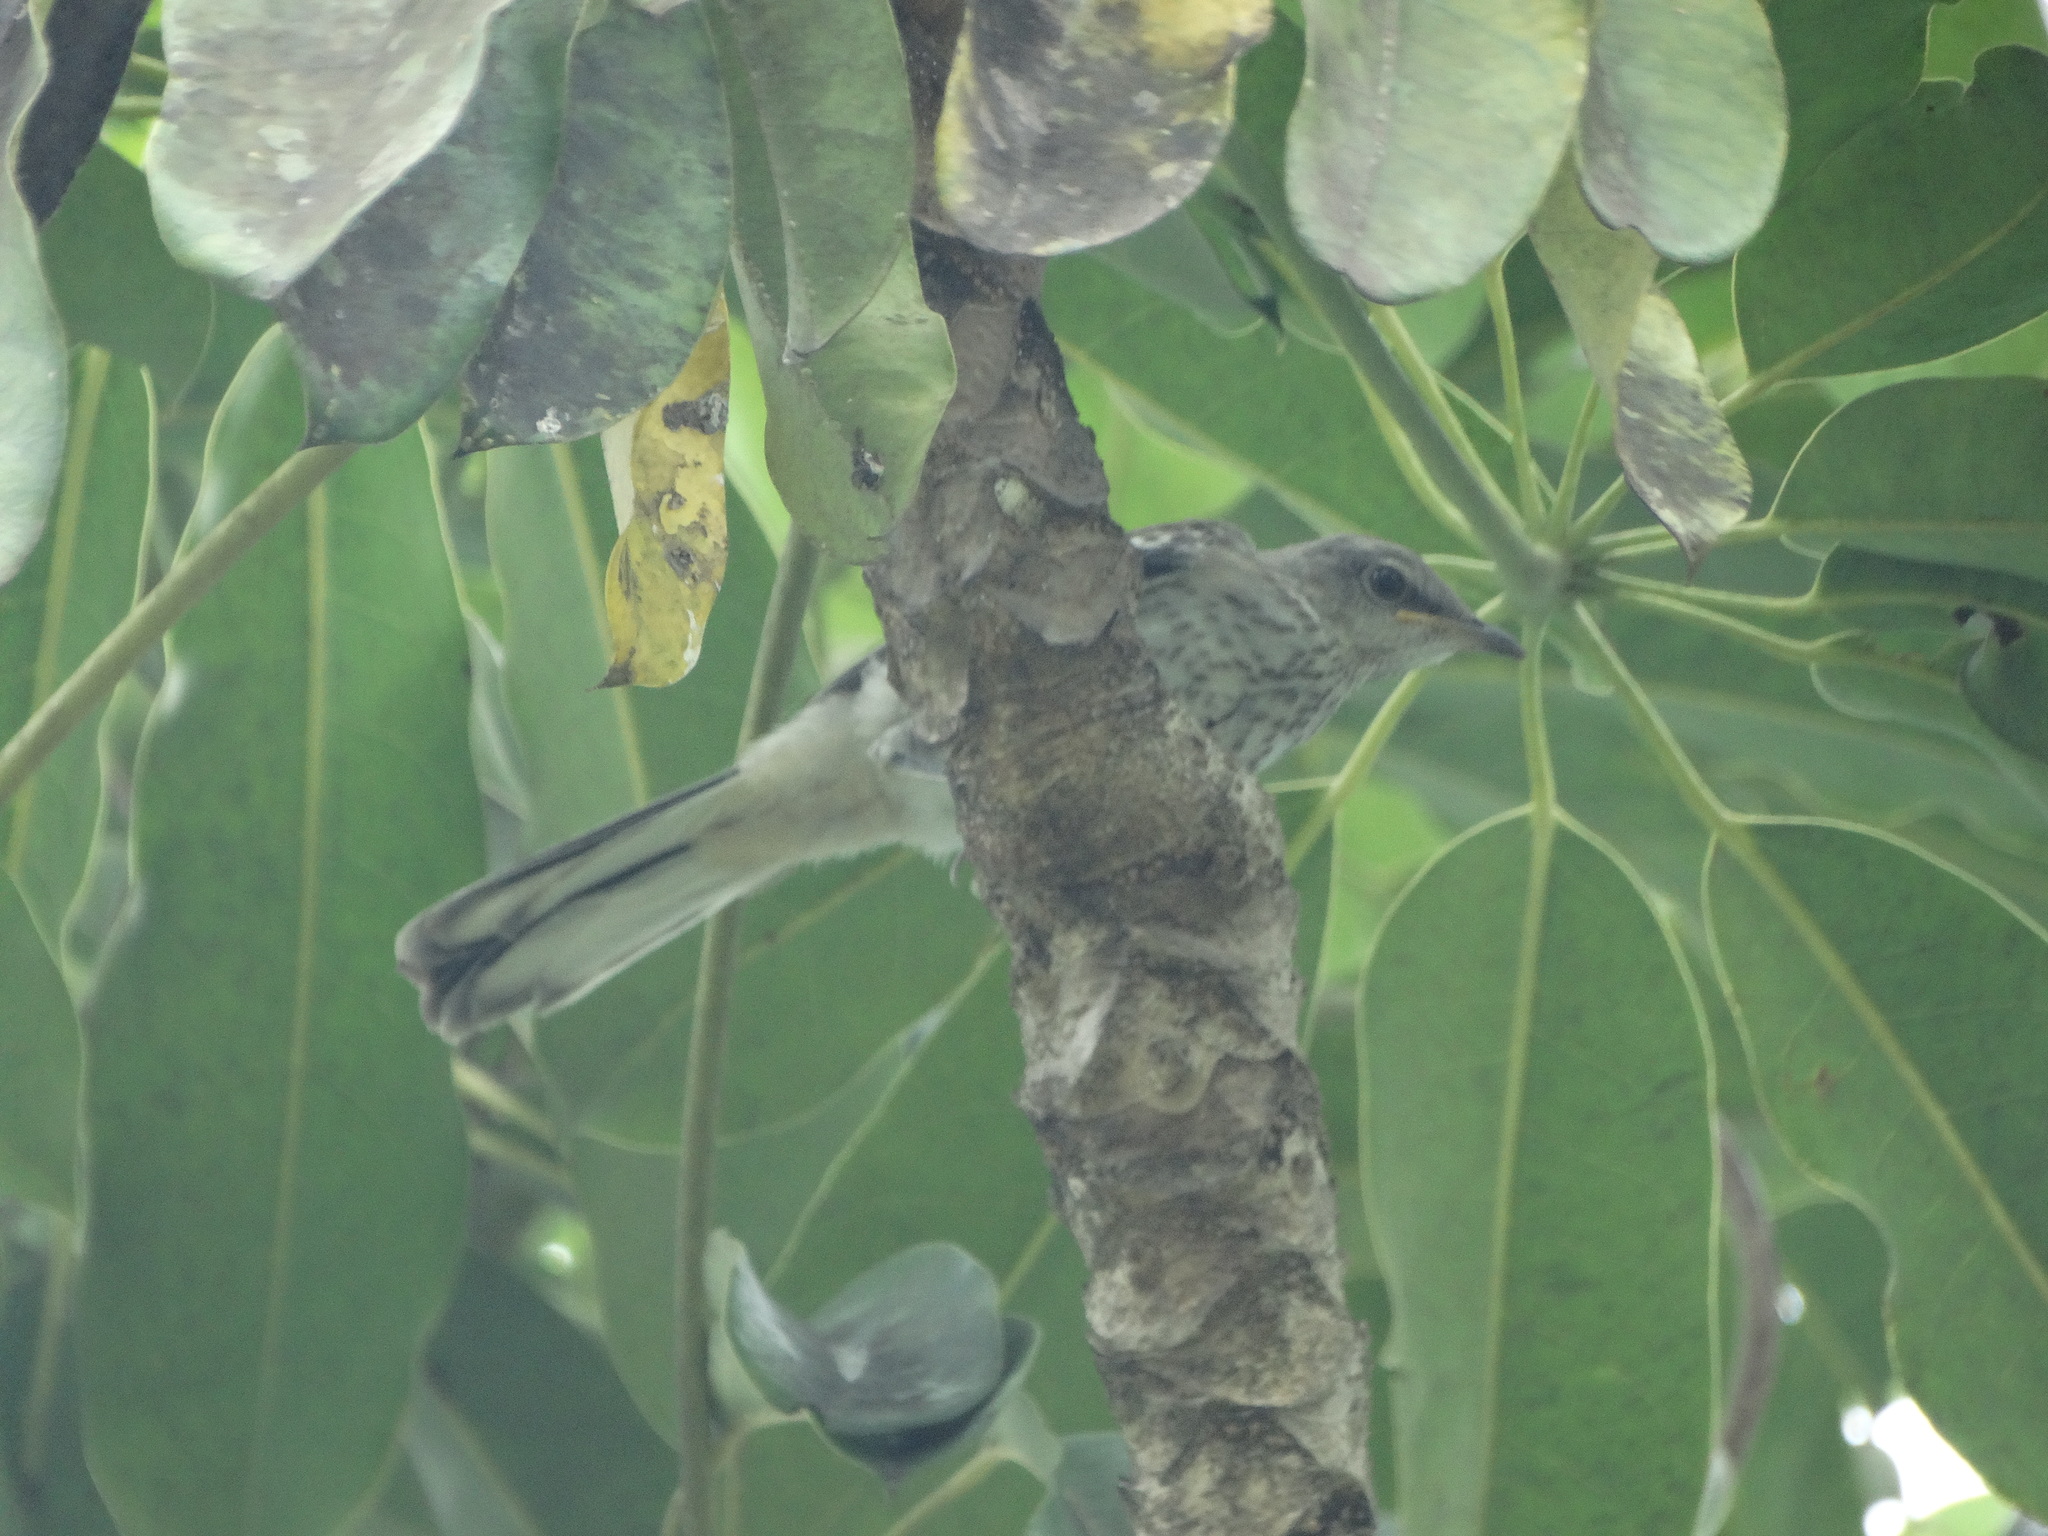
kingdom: Animalia
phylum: Chordata
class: Aves
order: Passeriformes
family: Mimidae
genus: Mimus
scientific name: Mimus polyglottos
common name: Northern mockingbird
